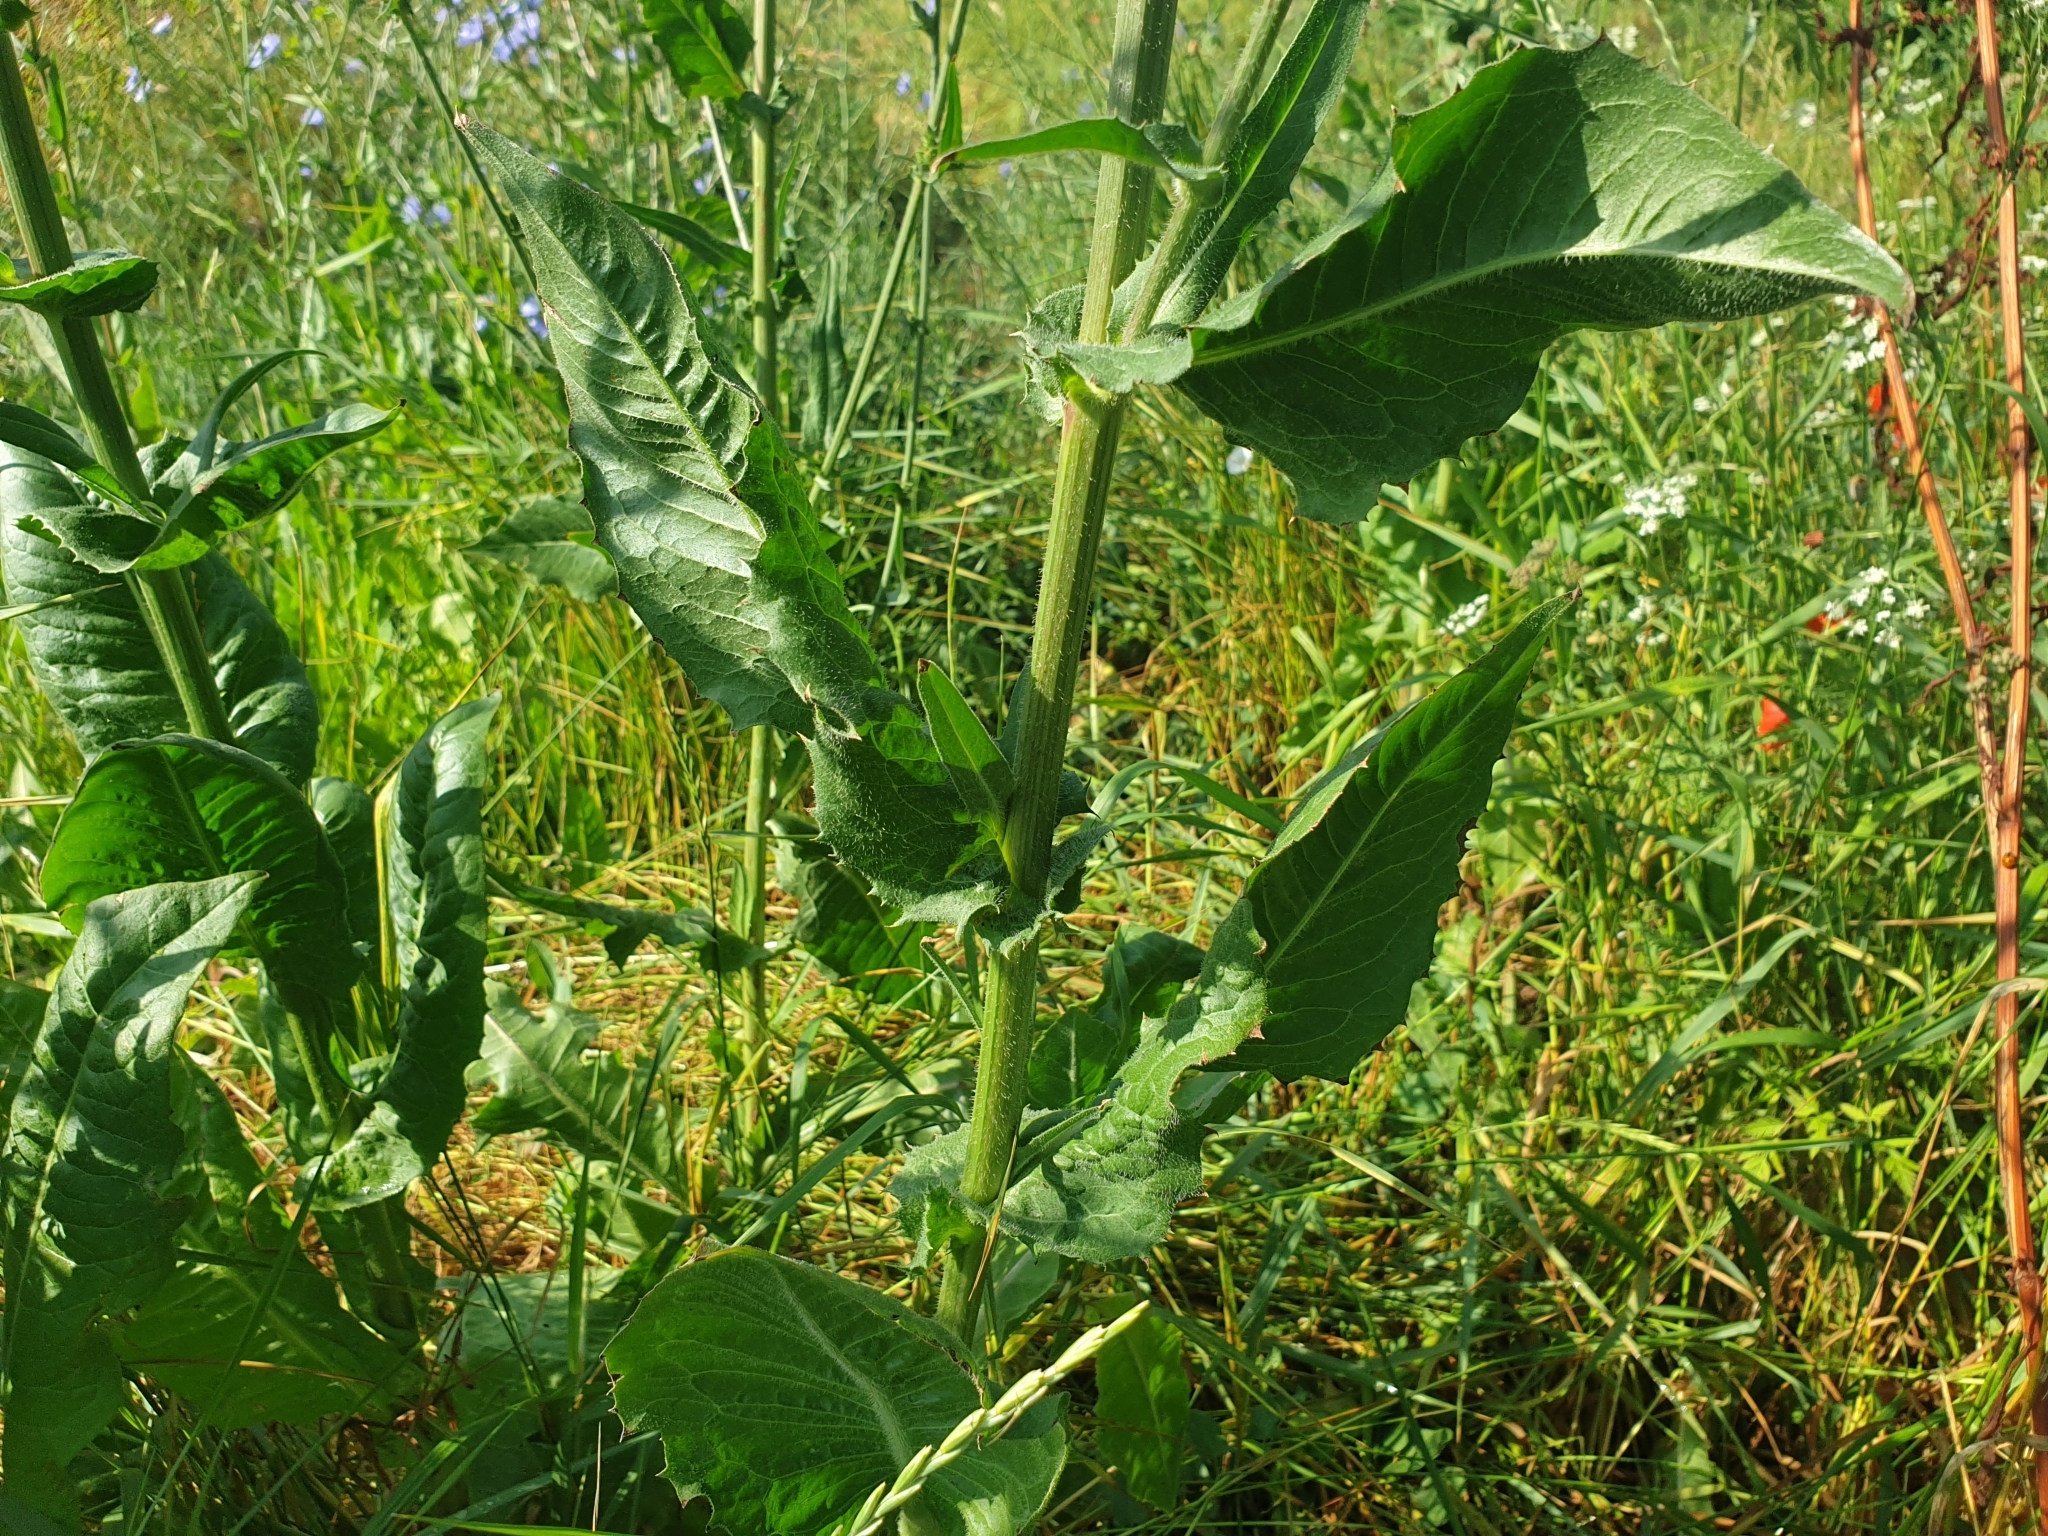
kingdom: Plantae
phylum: Tracheophyta
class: Magnoliopsida
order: Asterales
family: Asteraceae
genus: Cichorium
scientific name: Cichorium intybus
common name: Chicory
